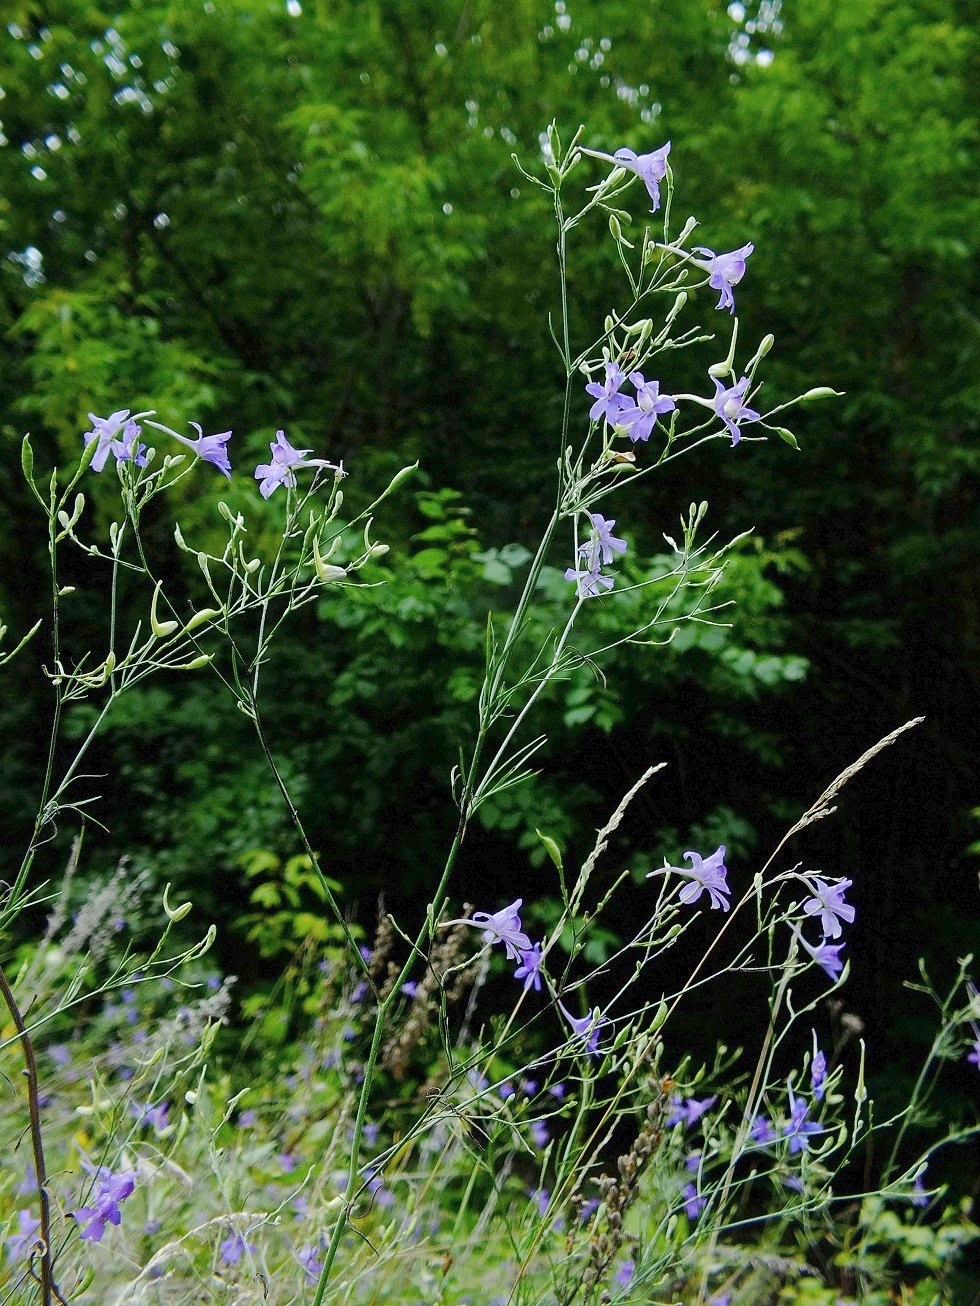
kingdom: Plantae
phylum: Tracheophyta
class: Magnoliopsida
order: Ranunculales
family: Ranunculaceae
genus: Delphinium
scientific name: Delphinium consolida
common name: Branching larkspur
